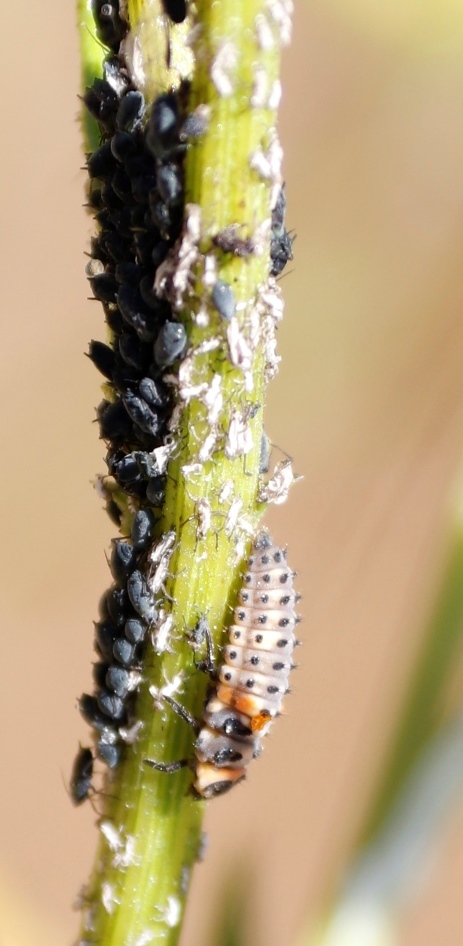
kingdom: Animalia
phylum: Arthropoda
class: Insecta
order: Coleoptera
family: Coccinellidae
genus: Hippodamia
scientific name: Hippodamia variegata
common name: Ladybird beetle
